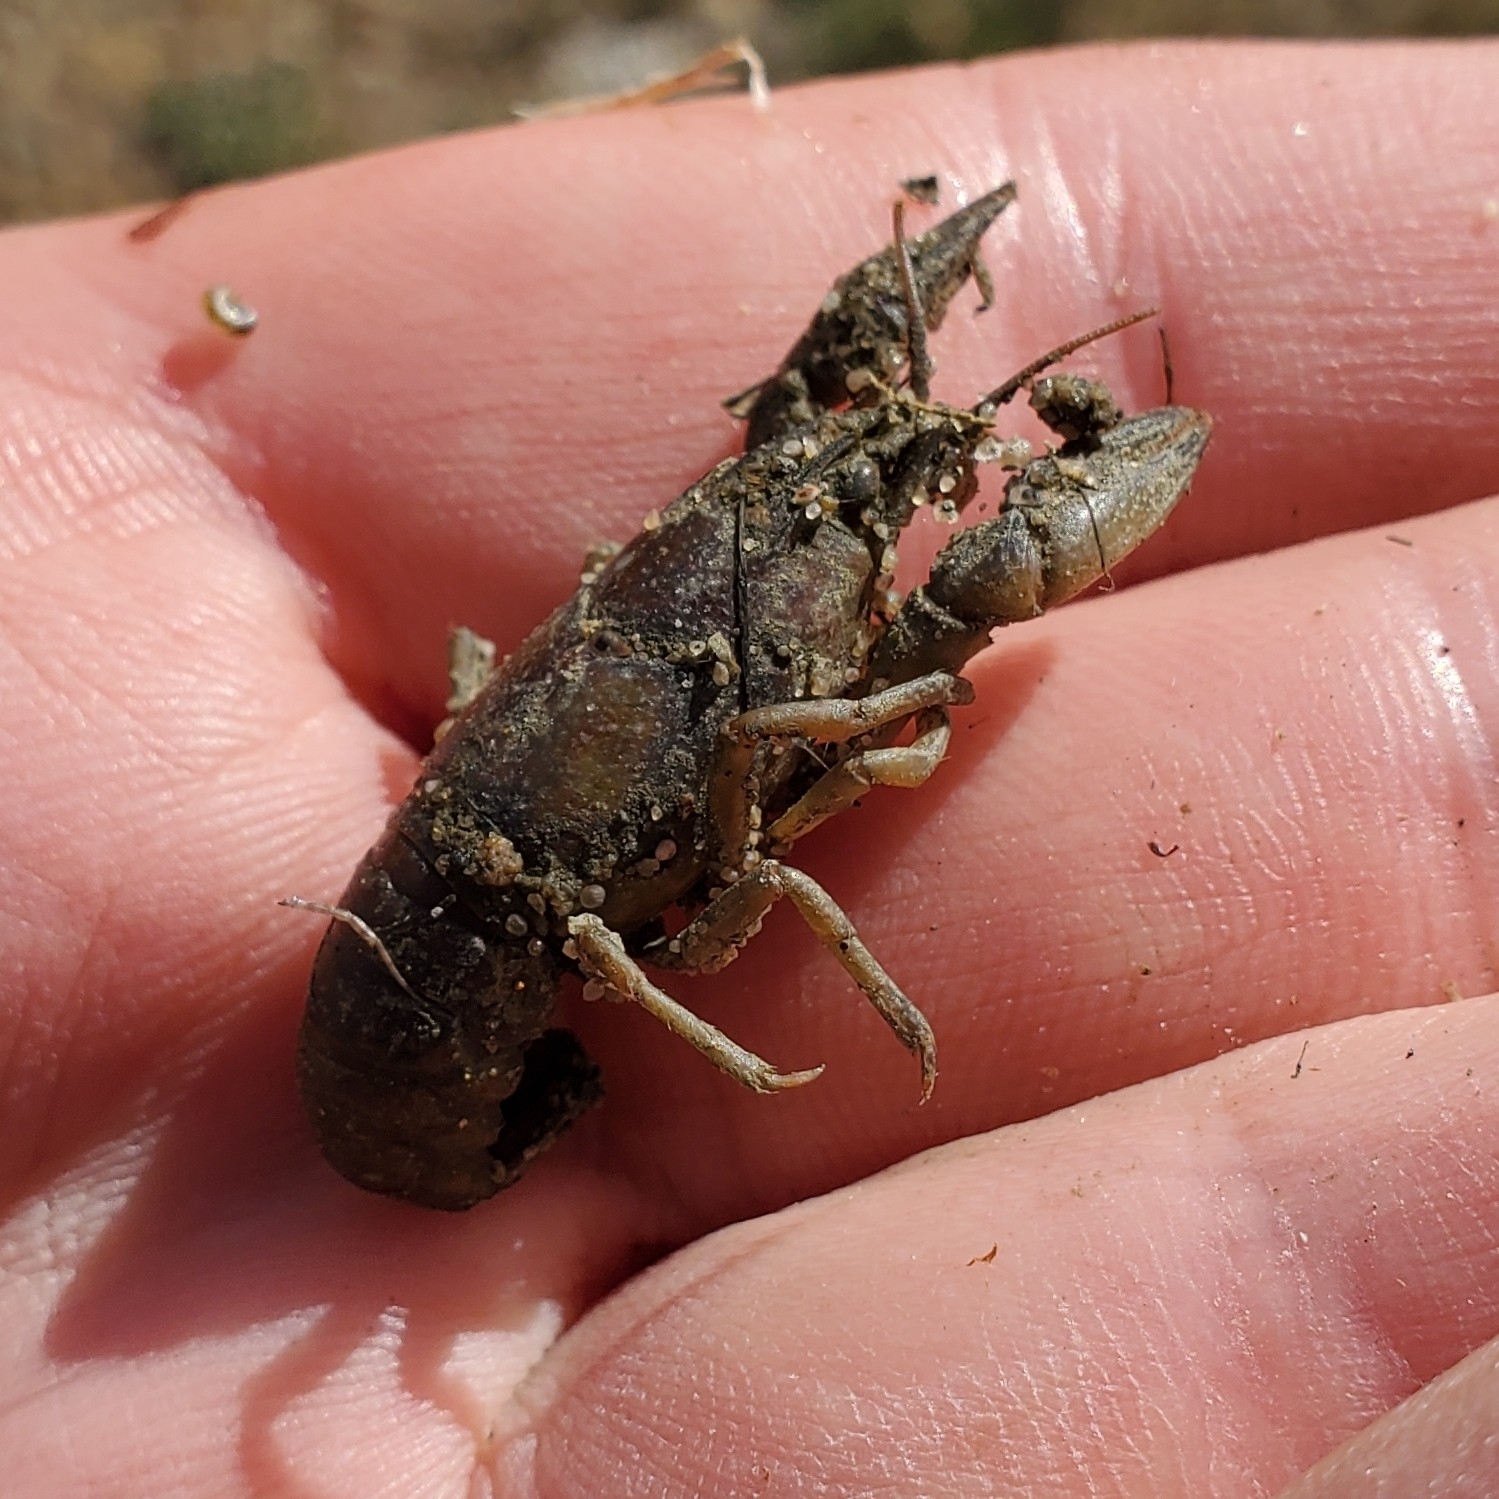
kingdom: Animalia
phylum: Arthropoda
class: Malacostraca
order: Decapoda
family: Cambaridae
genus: Faxonius
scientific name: Faxonius virilis
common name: Virile crayfish
